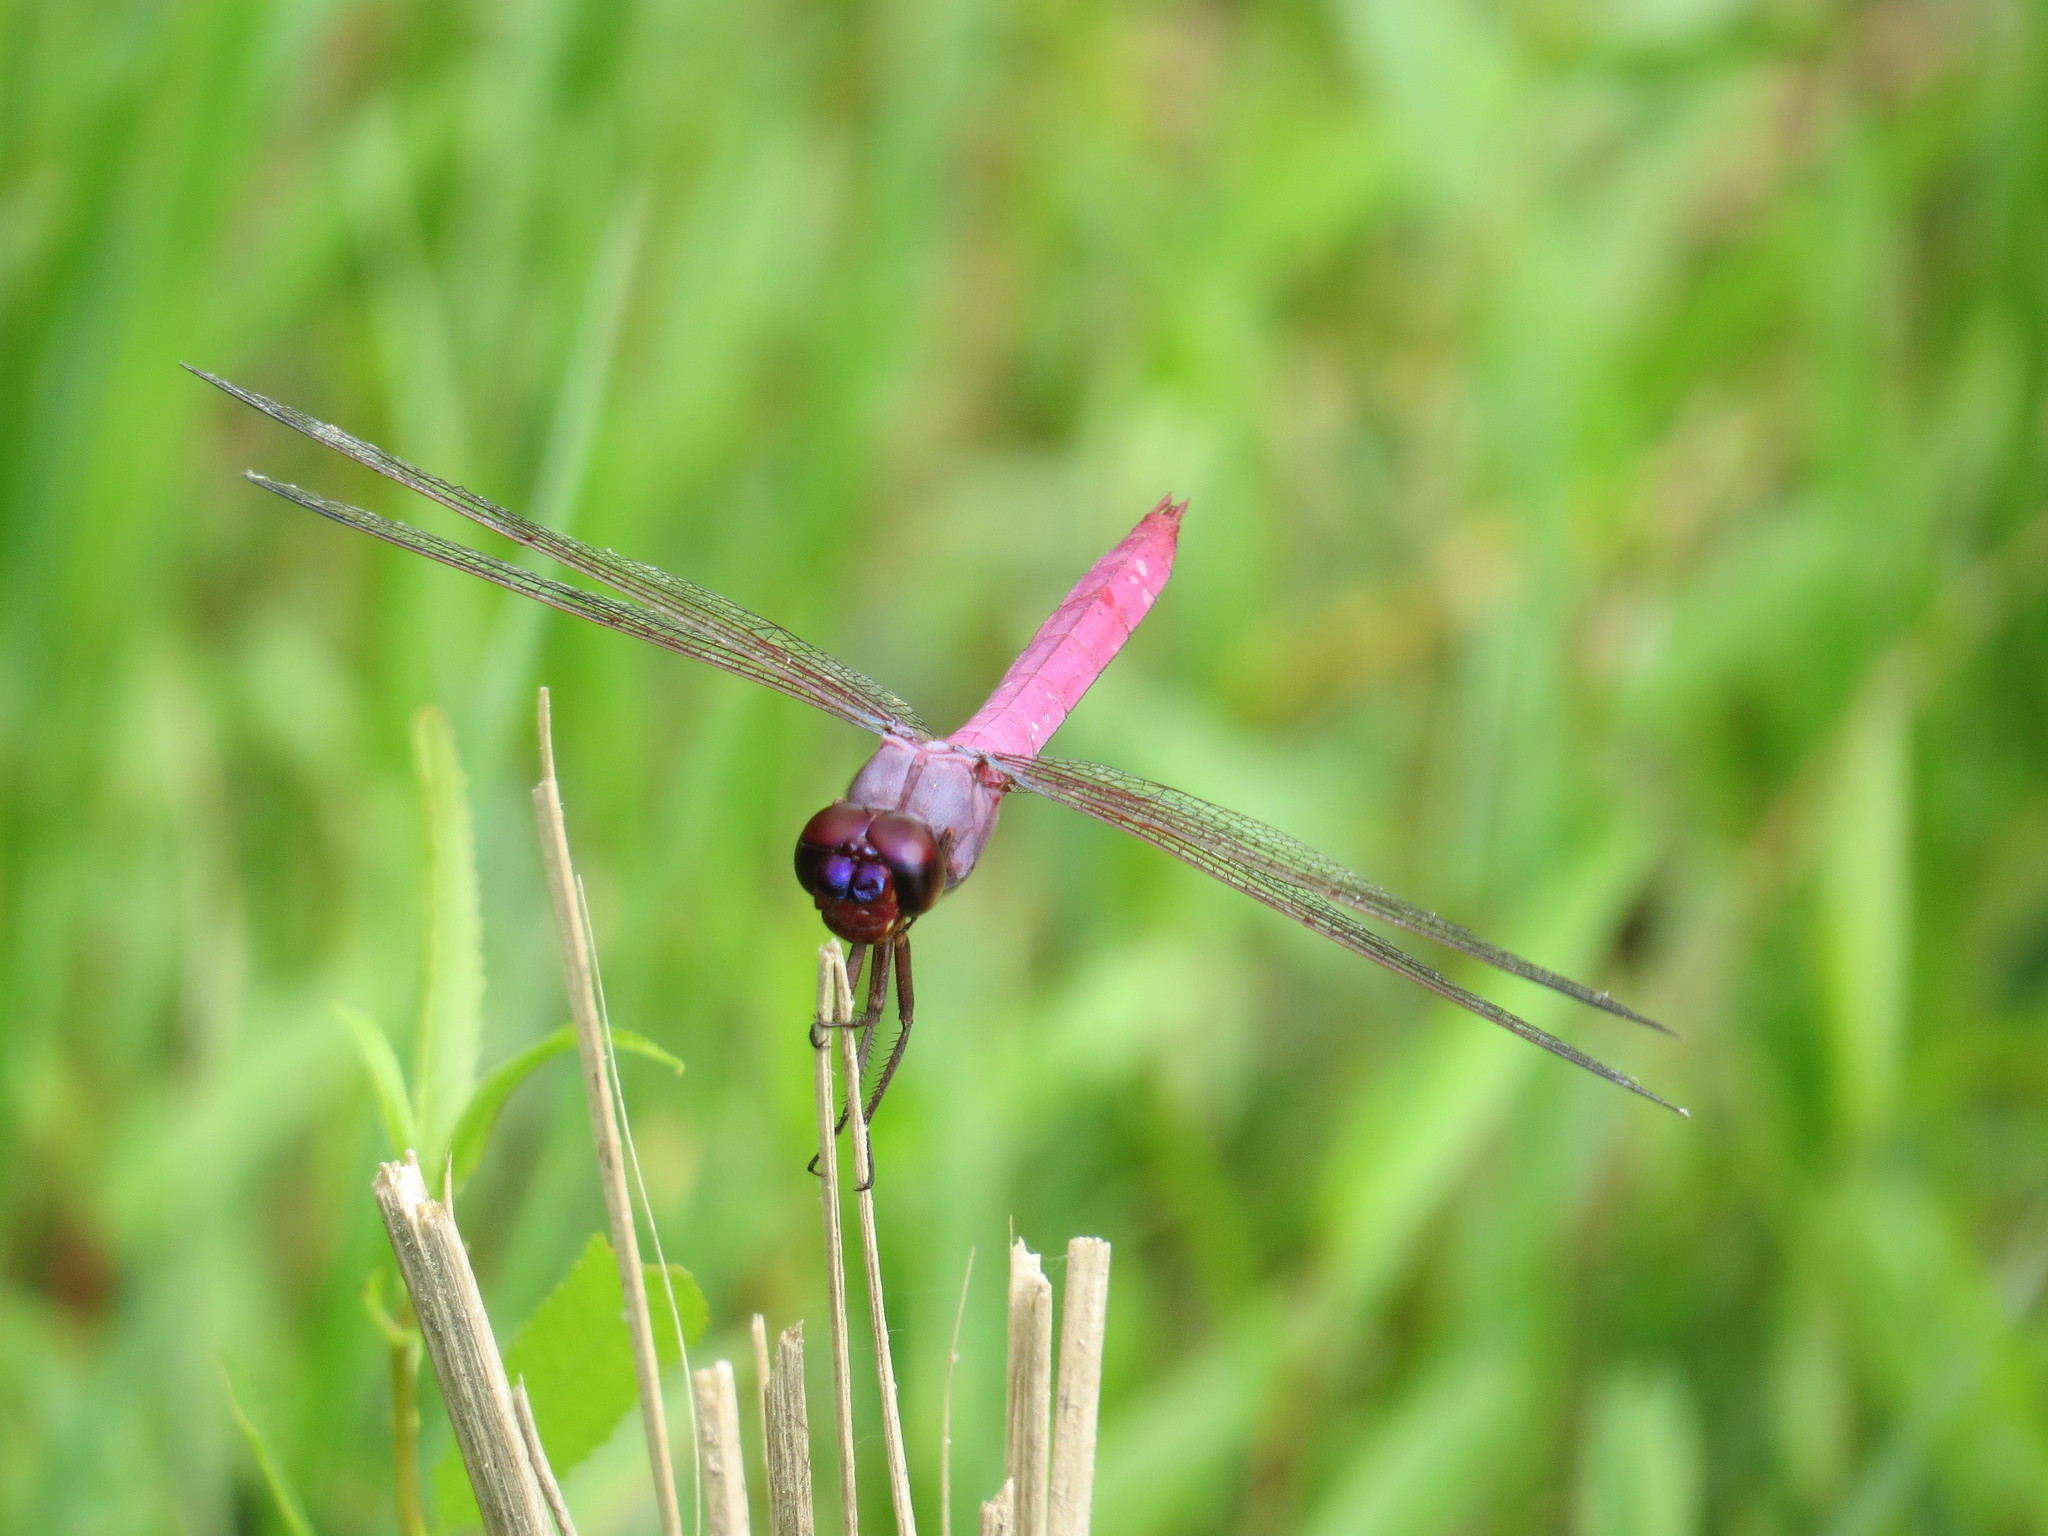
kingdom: Animalia
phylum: Arthropoda
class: Insecta
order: Odonata
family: Libellulidae
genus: Orthemis
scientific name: Orthemis ferruginea
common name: Roseate skimmer
